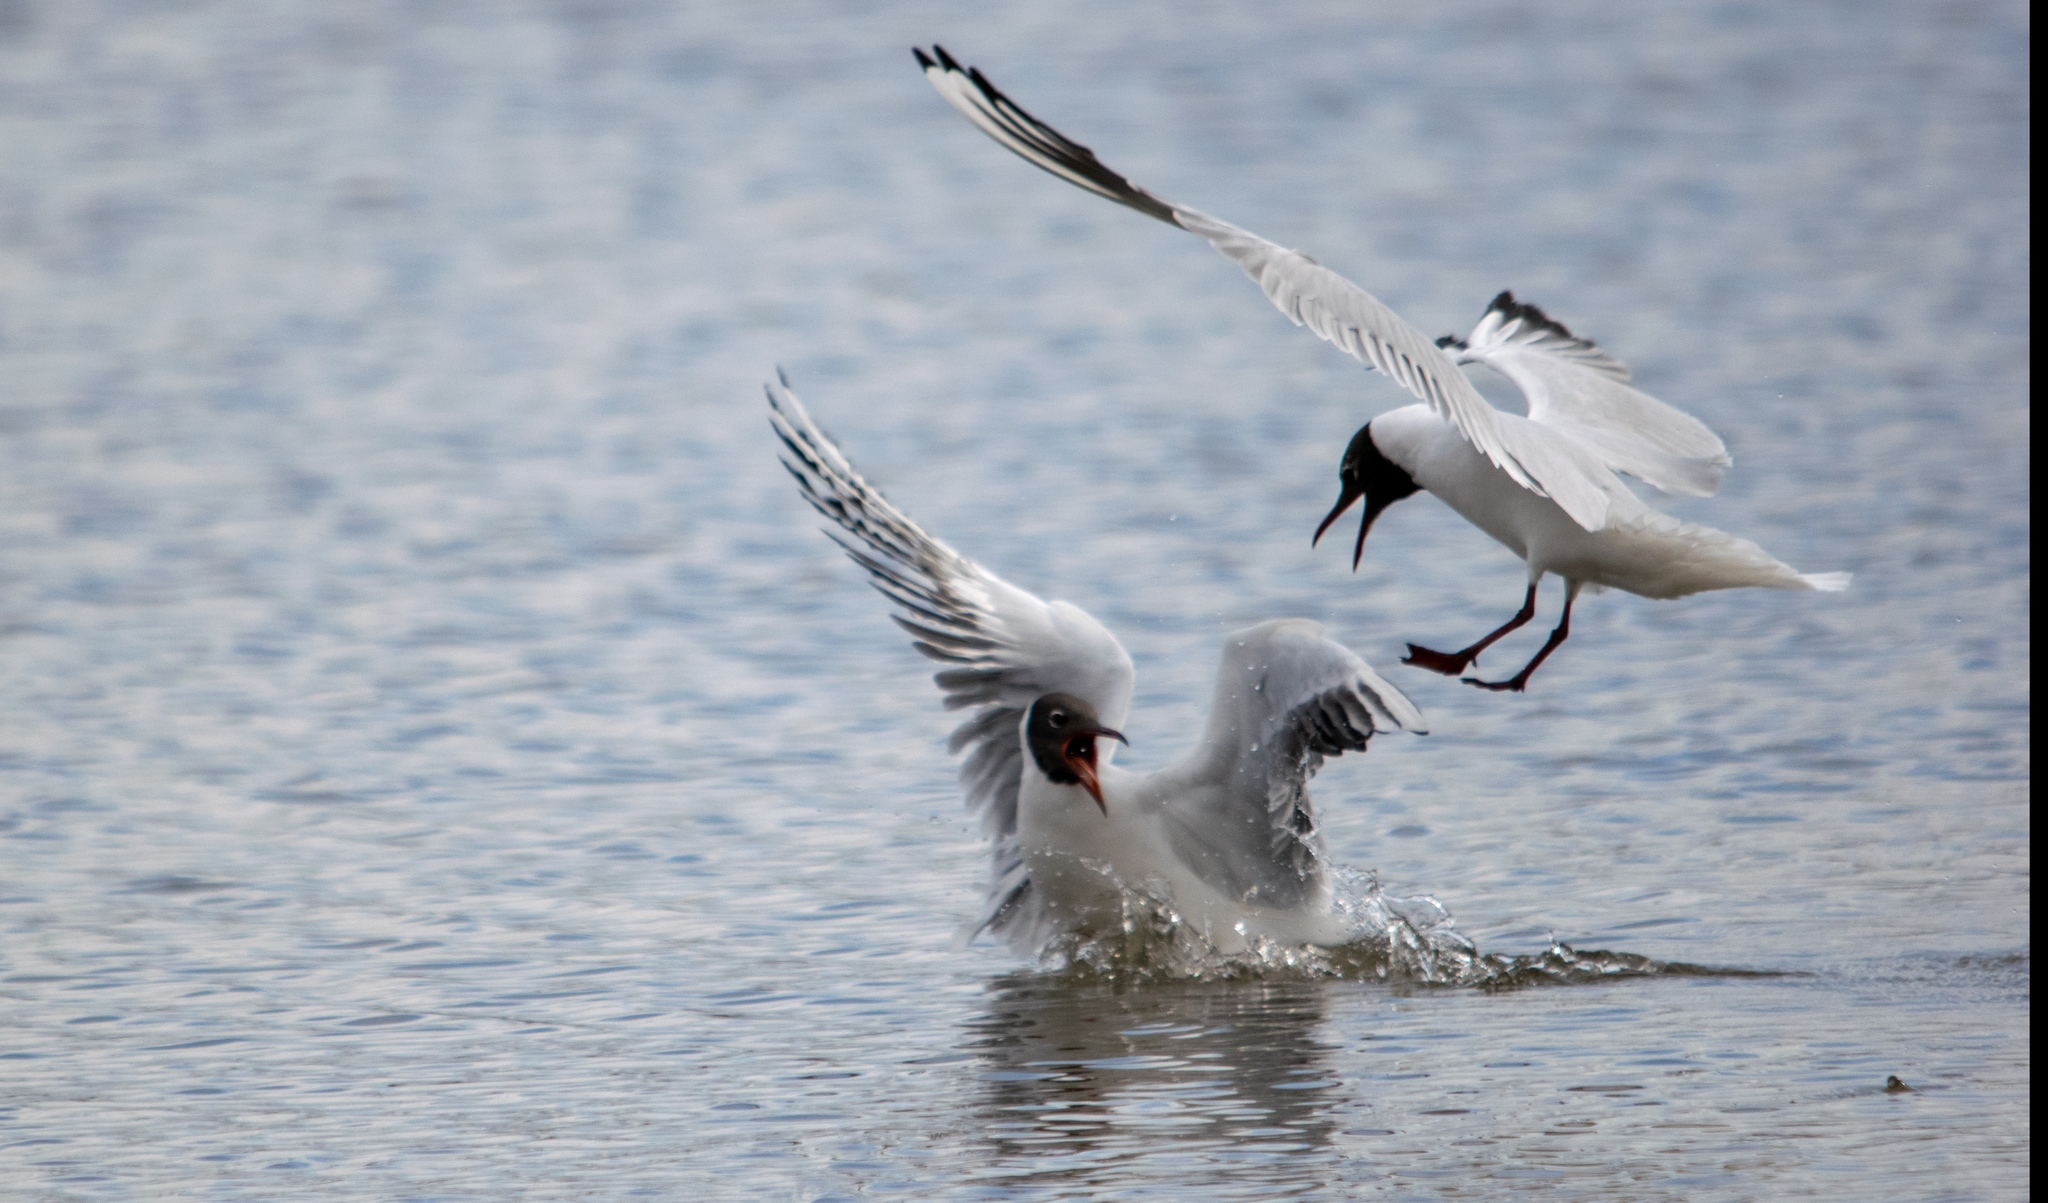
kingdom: Animalia
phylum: Chordata
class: Aves
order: Charadriiformes
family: Laridae
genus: Chroicocephalus
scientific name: Chroicocephalus ridibundus
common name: Black-headed gull
